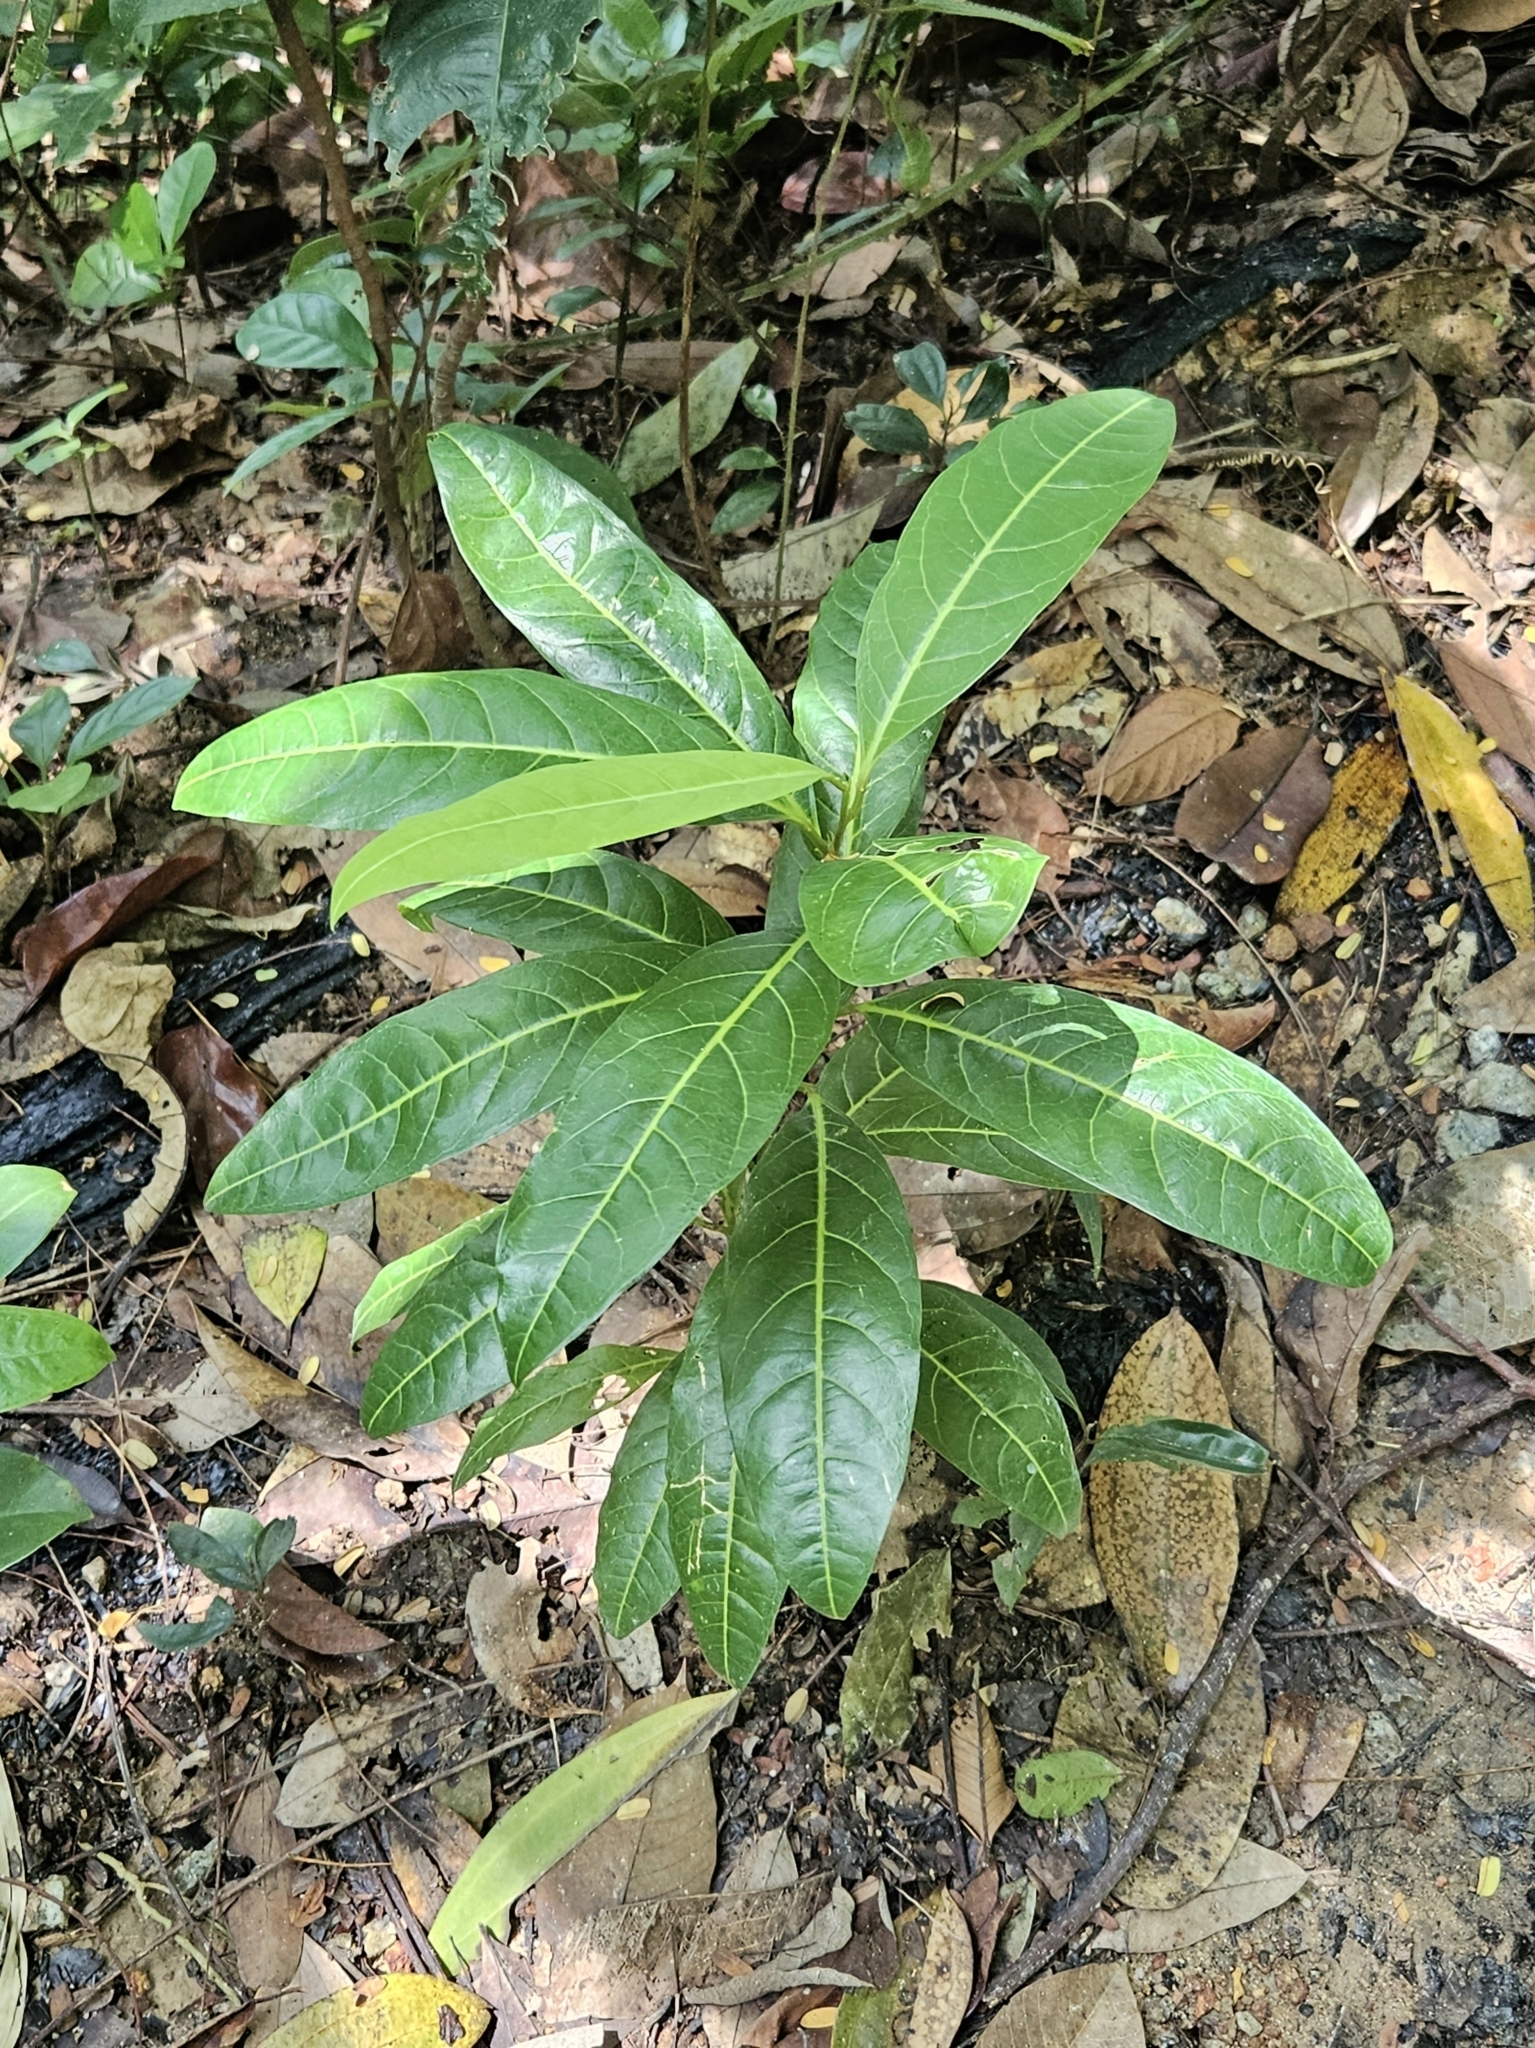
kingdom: Plantae
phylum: Tracheophyta
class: Magnoliopsida
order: Malpighiales
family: Passifloraceae
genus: Passiflora
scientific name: Passiflora laurifolia
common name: Bell apple
